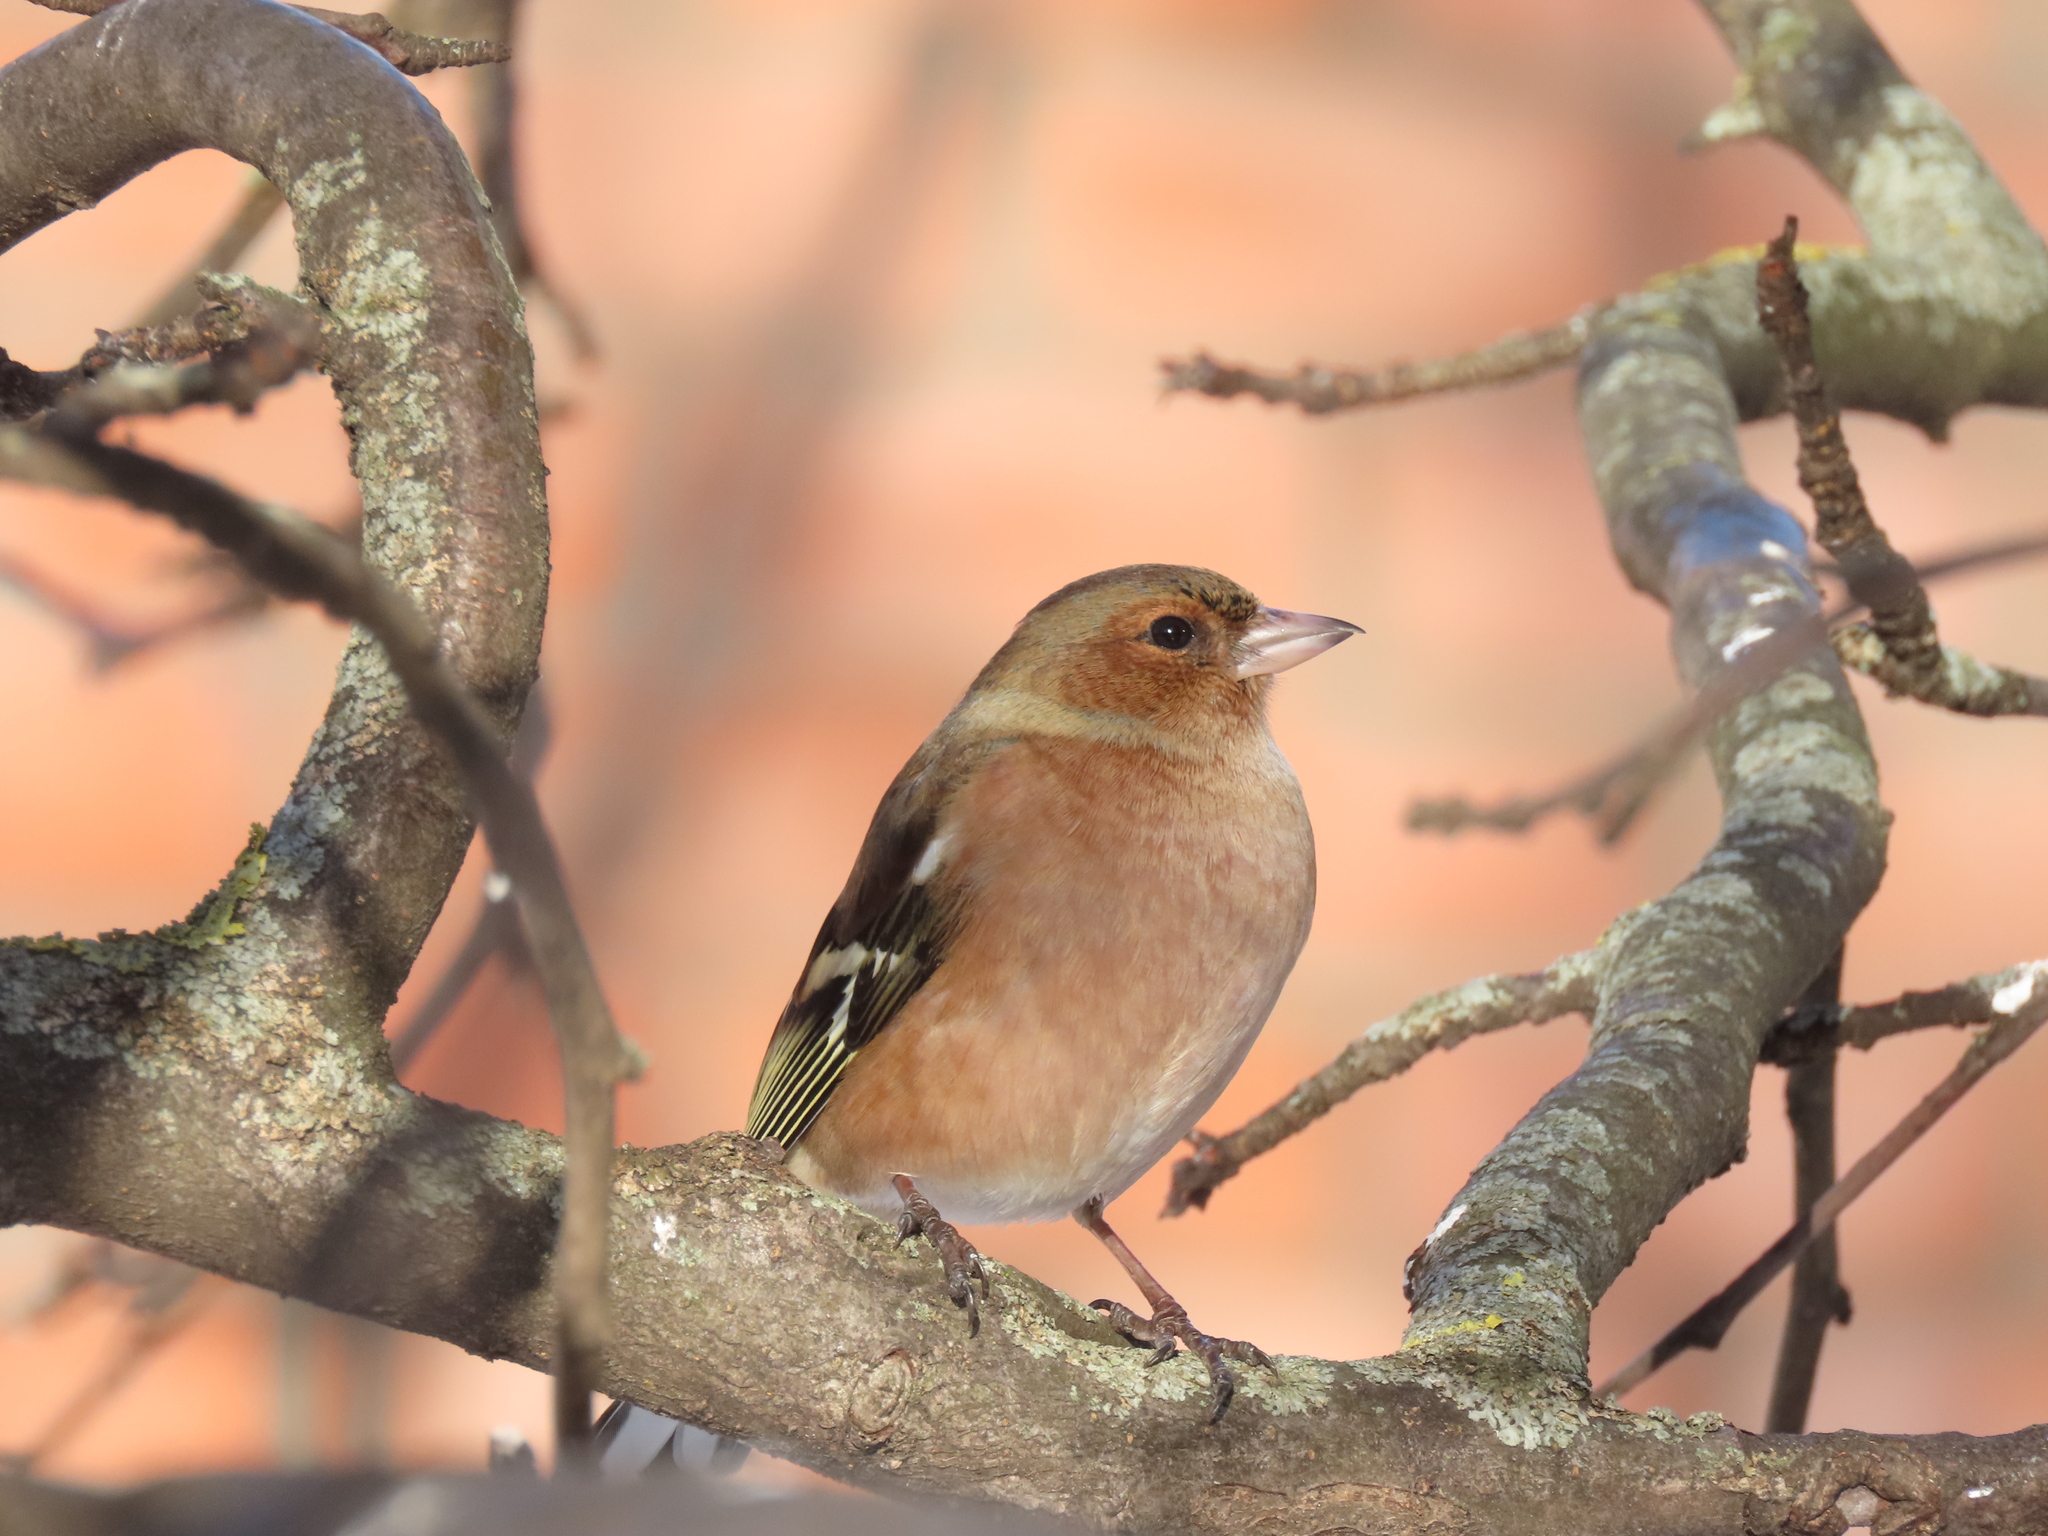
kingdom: Animalia
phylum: Chordata
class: Aves
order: Passeriformes
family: Fringillidae
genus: Fringilla
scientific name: Fringilla coelebs
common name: Common chaffinch
